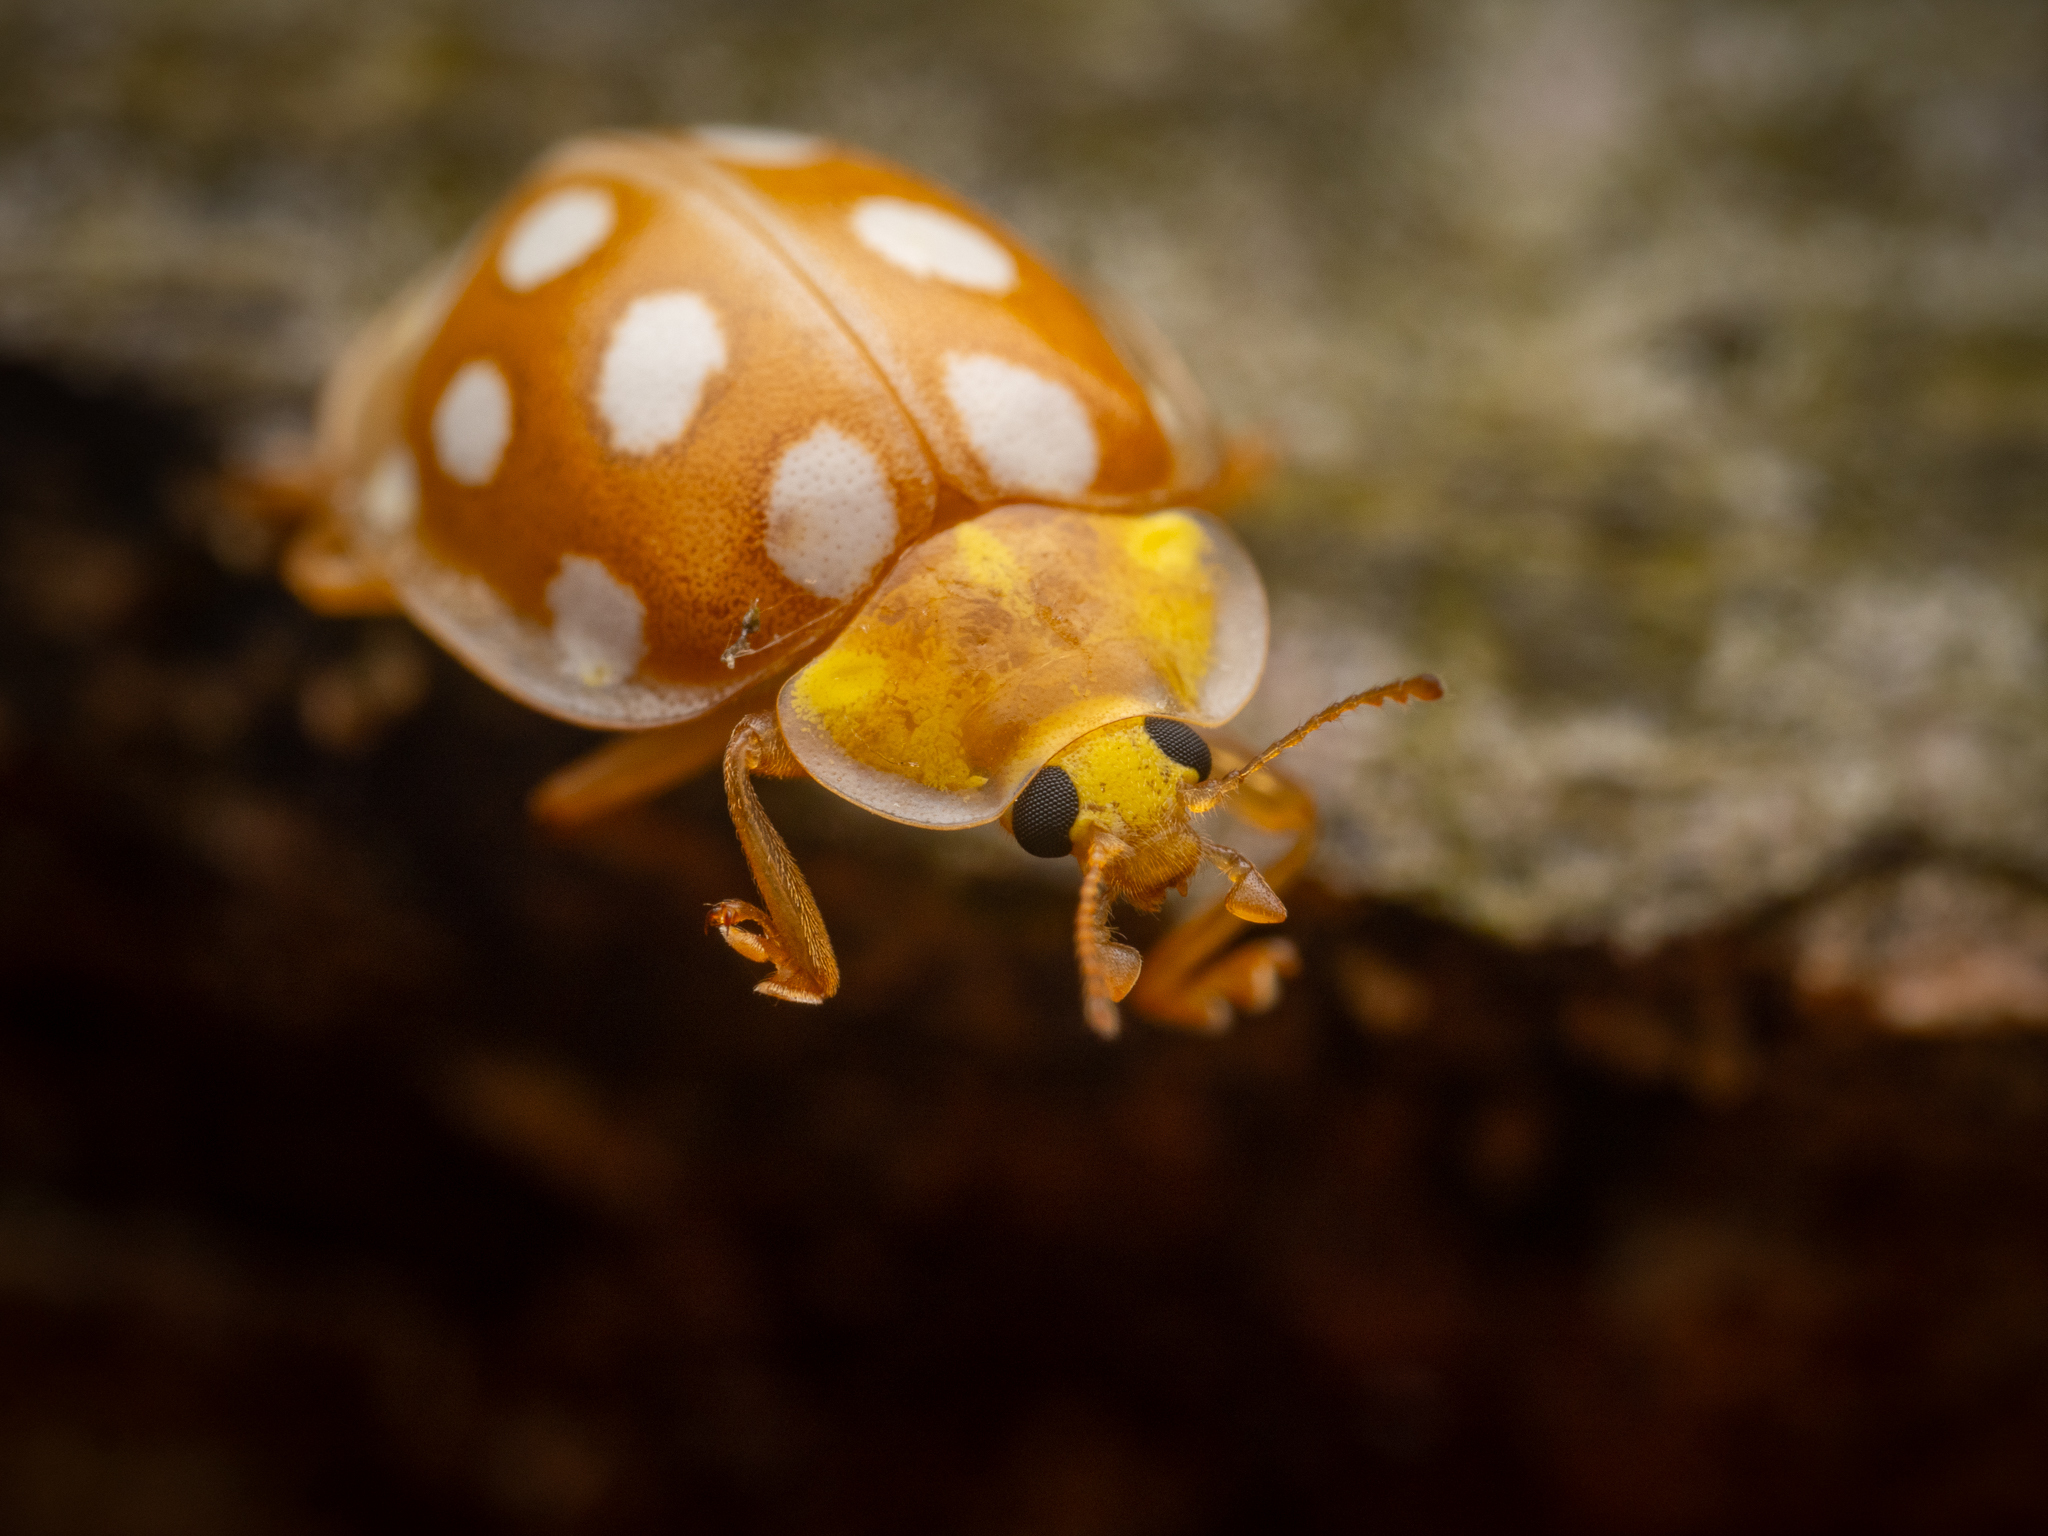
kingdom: Animalia
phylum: Arthropoda
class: Insecta
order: Coleoptera
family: Coccinellidae
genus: Halyzia
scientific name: Halyzia sedecimguttata
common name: Orange ladybird
